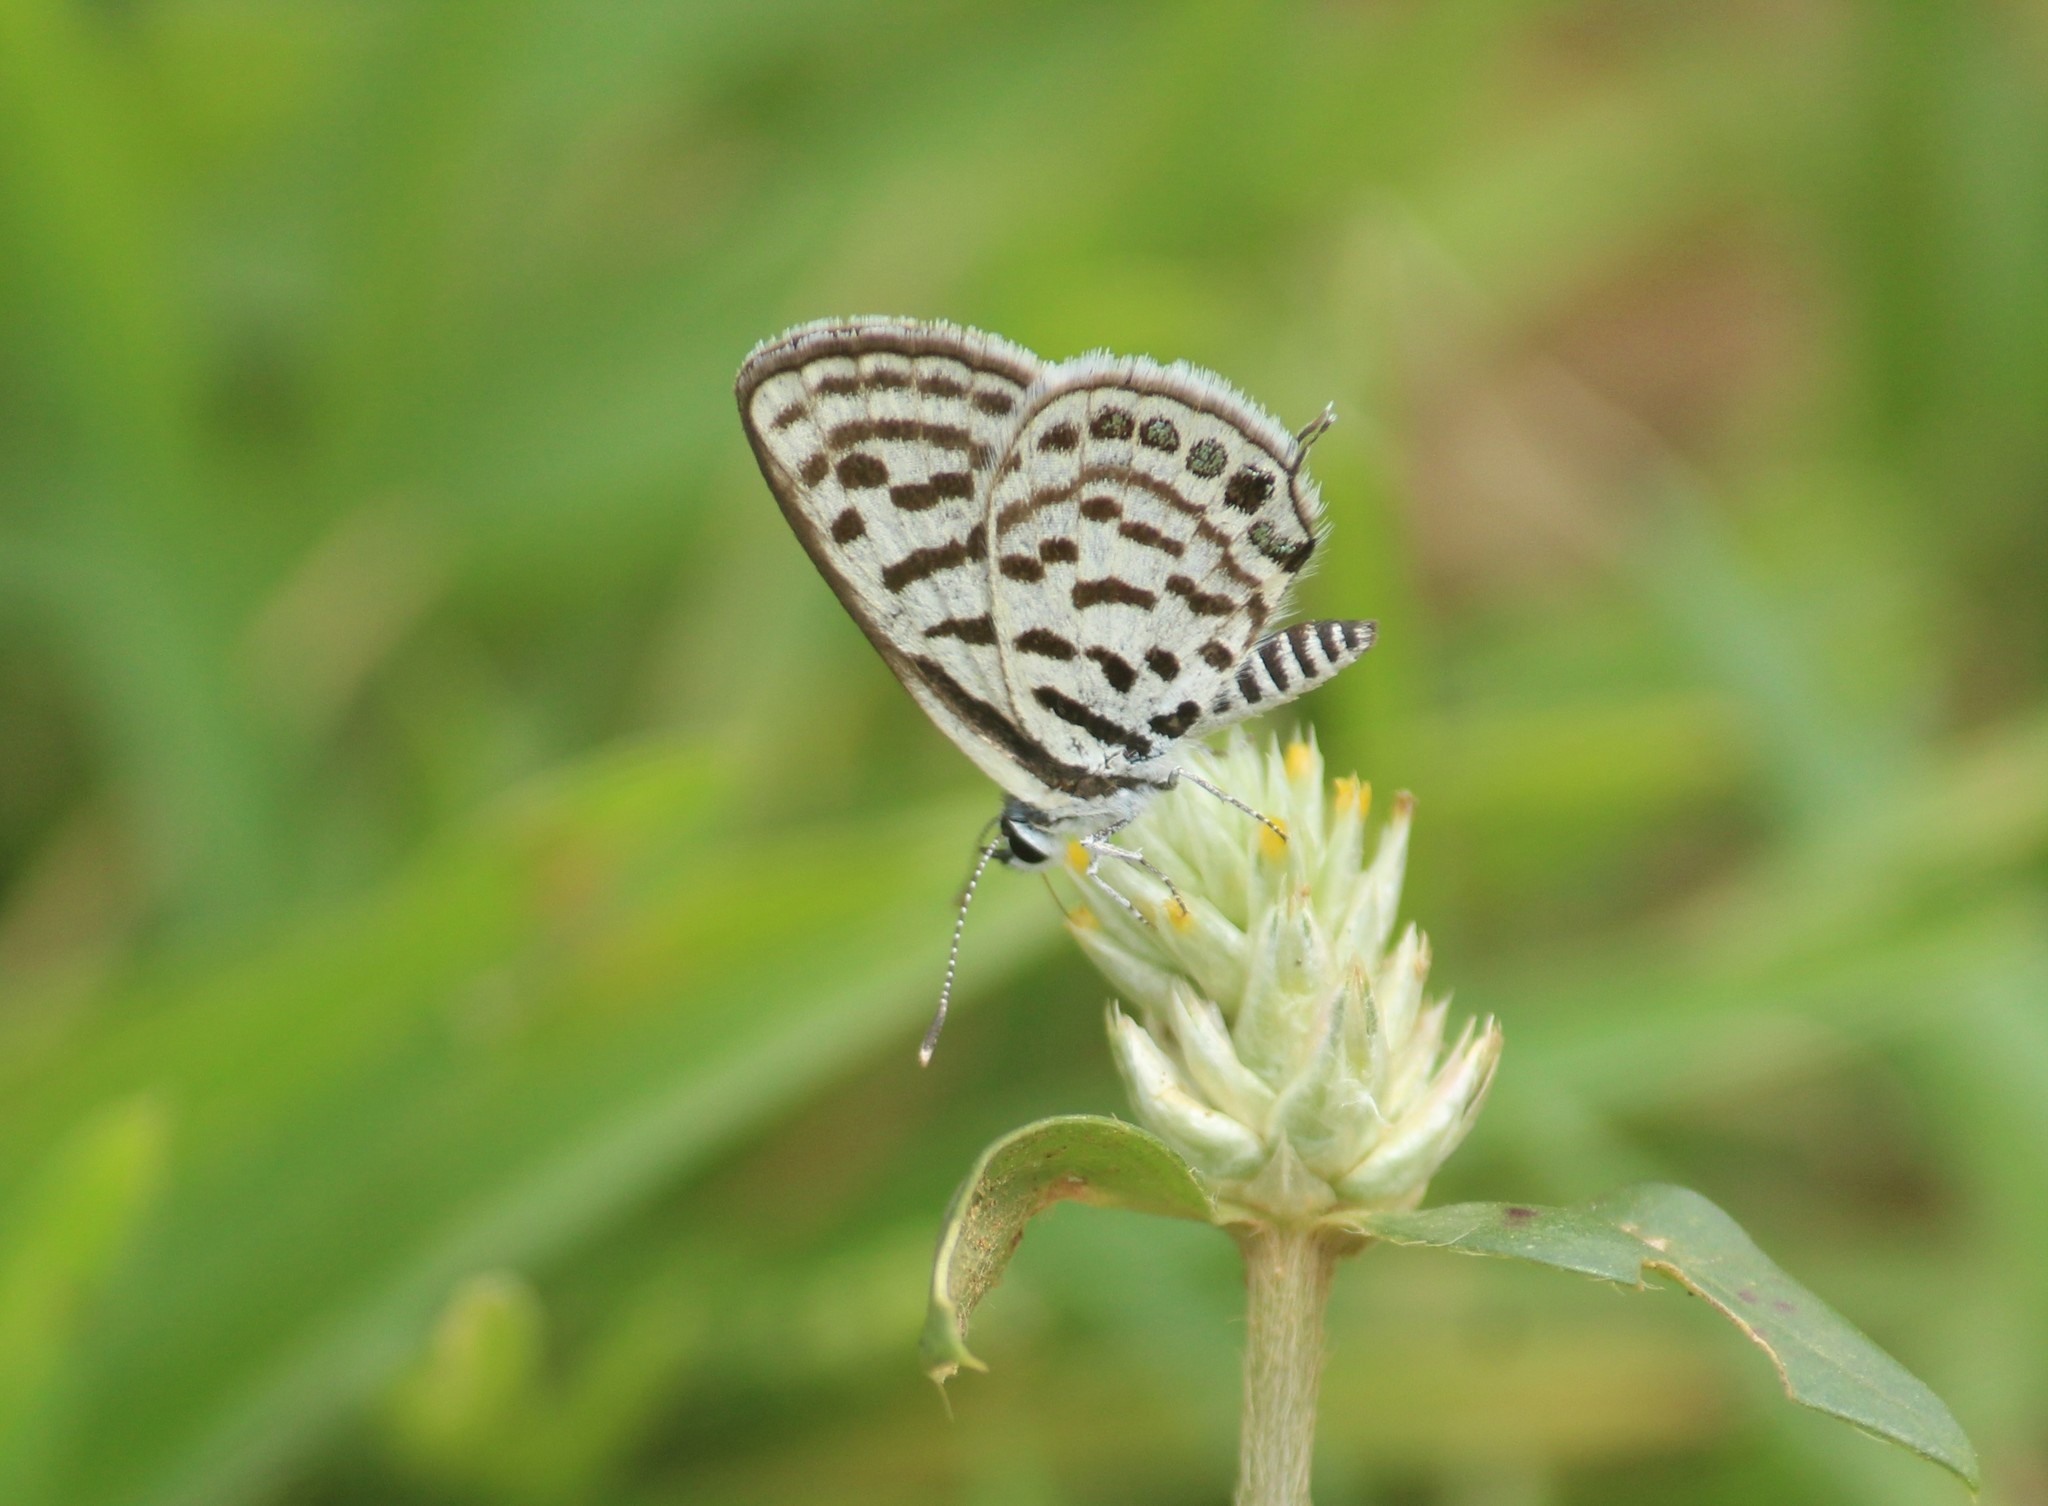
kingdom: Animalia
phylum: Arthropoda
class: Insecta
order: Lepidoptera
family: Lycaenidae
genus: Tarucus
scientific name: Tarucus balkanica
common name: Little tiger blue
